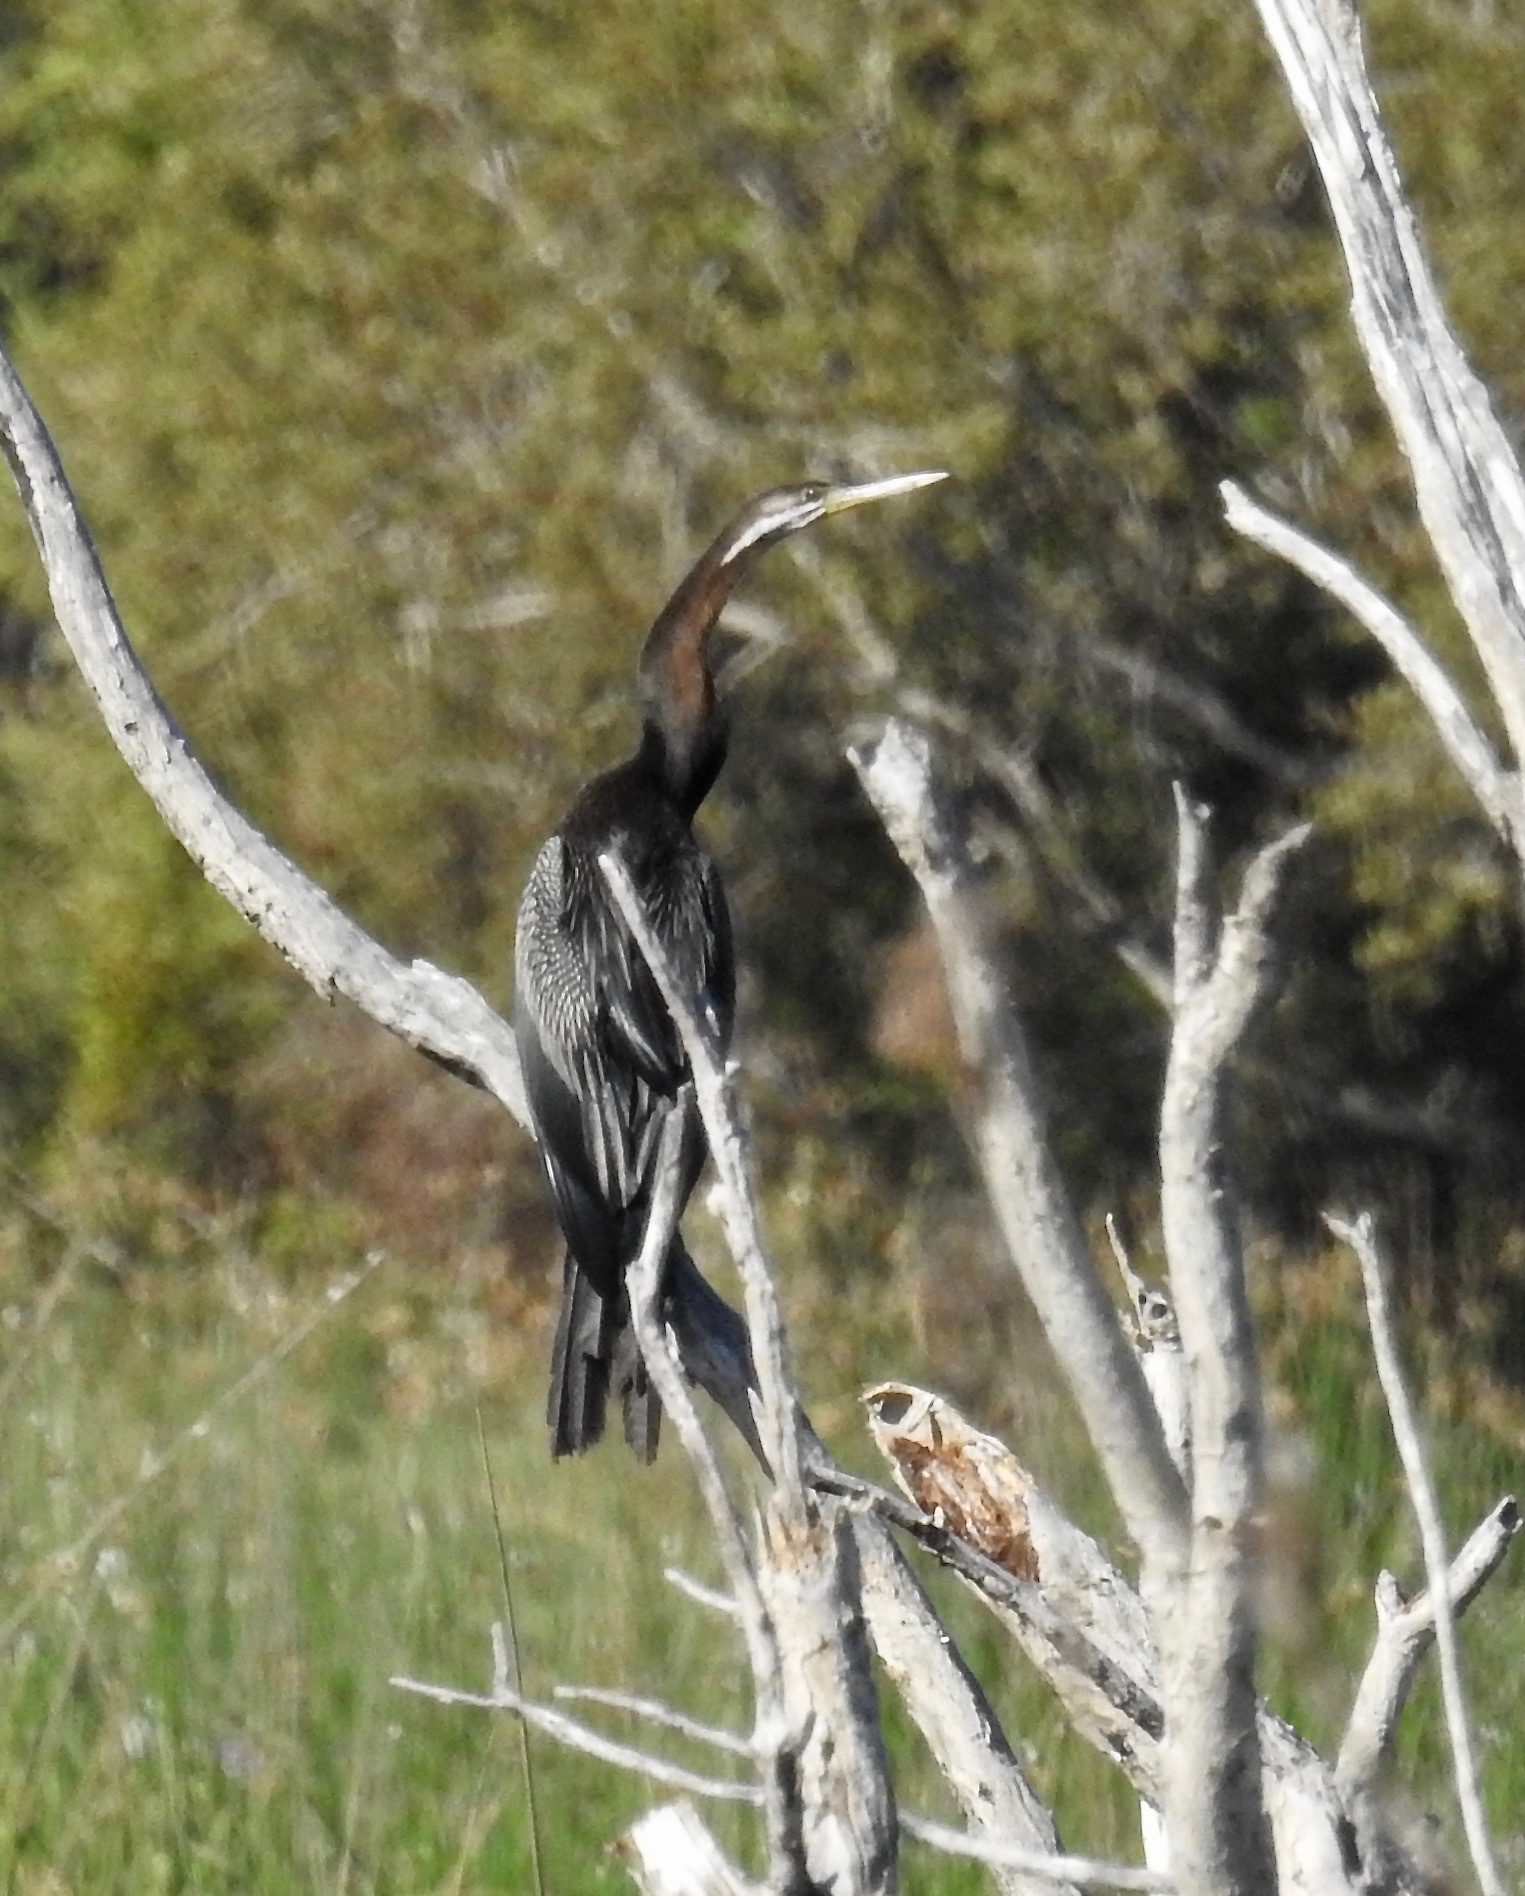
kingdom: Animalia
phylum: Chordata
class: Aves
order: Suliformes
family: Anhingidae
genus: Anhinga
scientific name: Anhinga novaehollandiae
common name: Australasian darter
